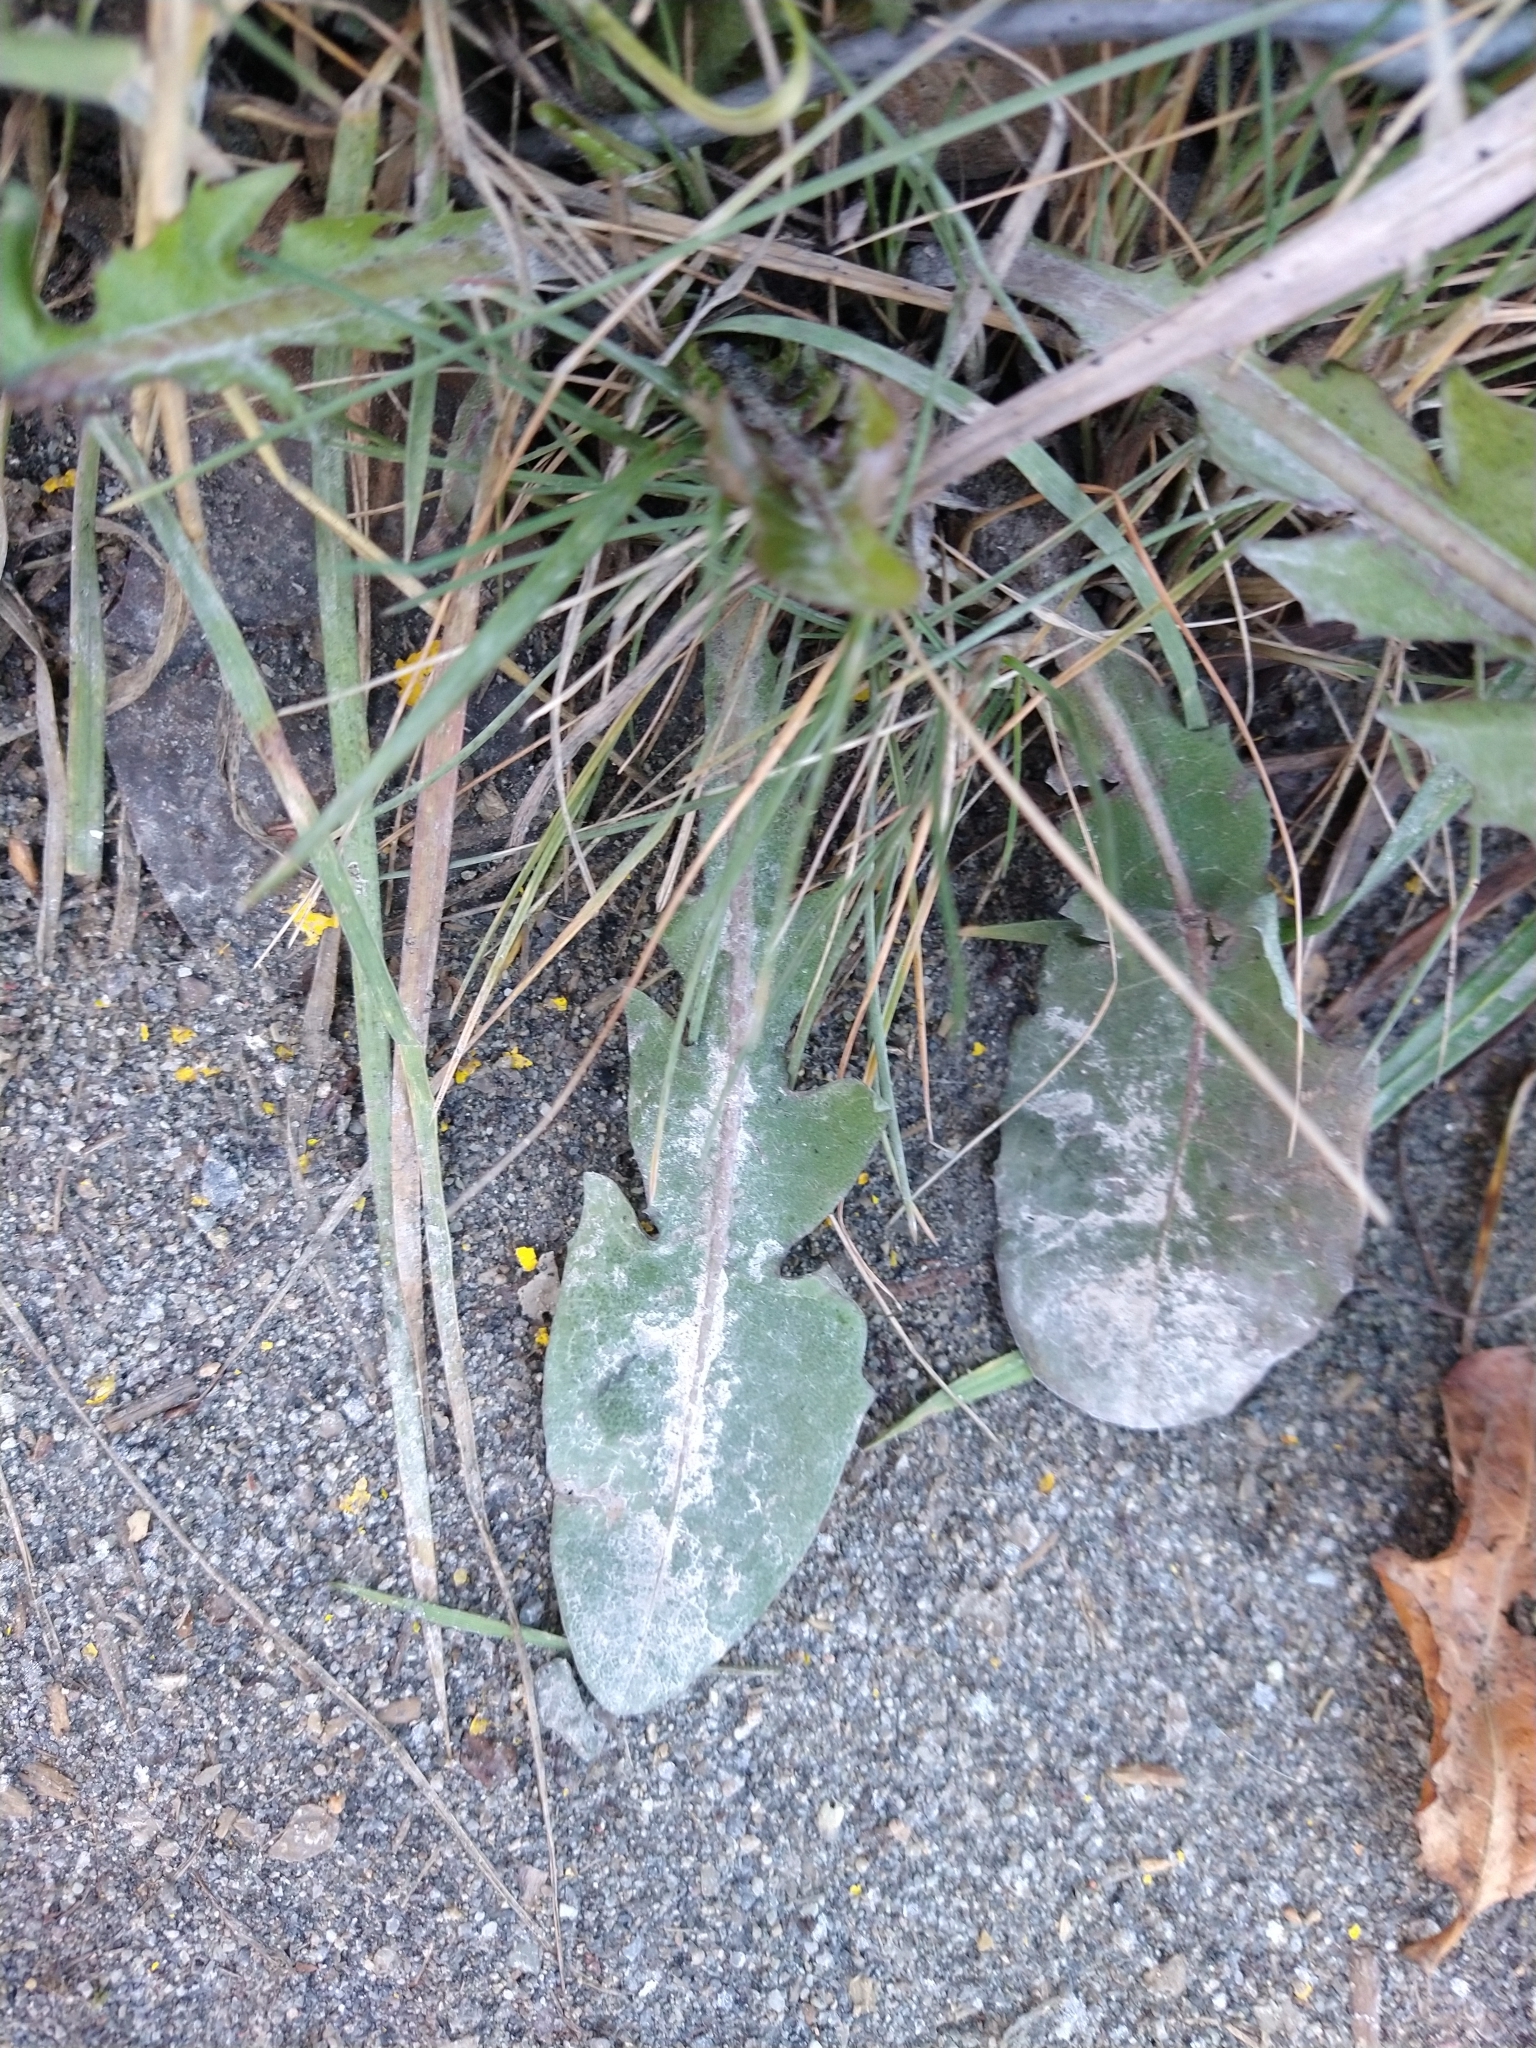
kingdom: Plantae
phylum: Tracheophyta
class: Magnoliopsida
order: Asterales
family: Asteraceae
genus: Taraxacum
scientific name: Taraxacum officinale
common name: Common dandelion
